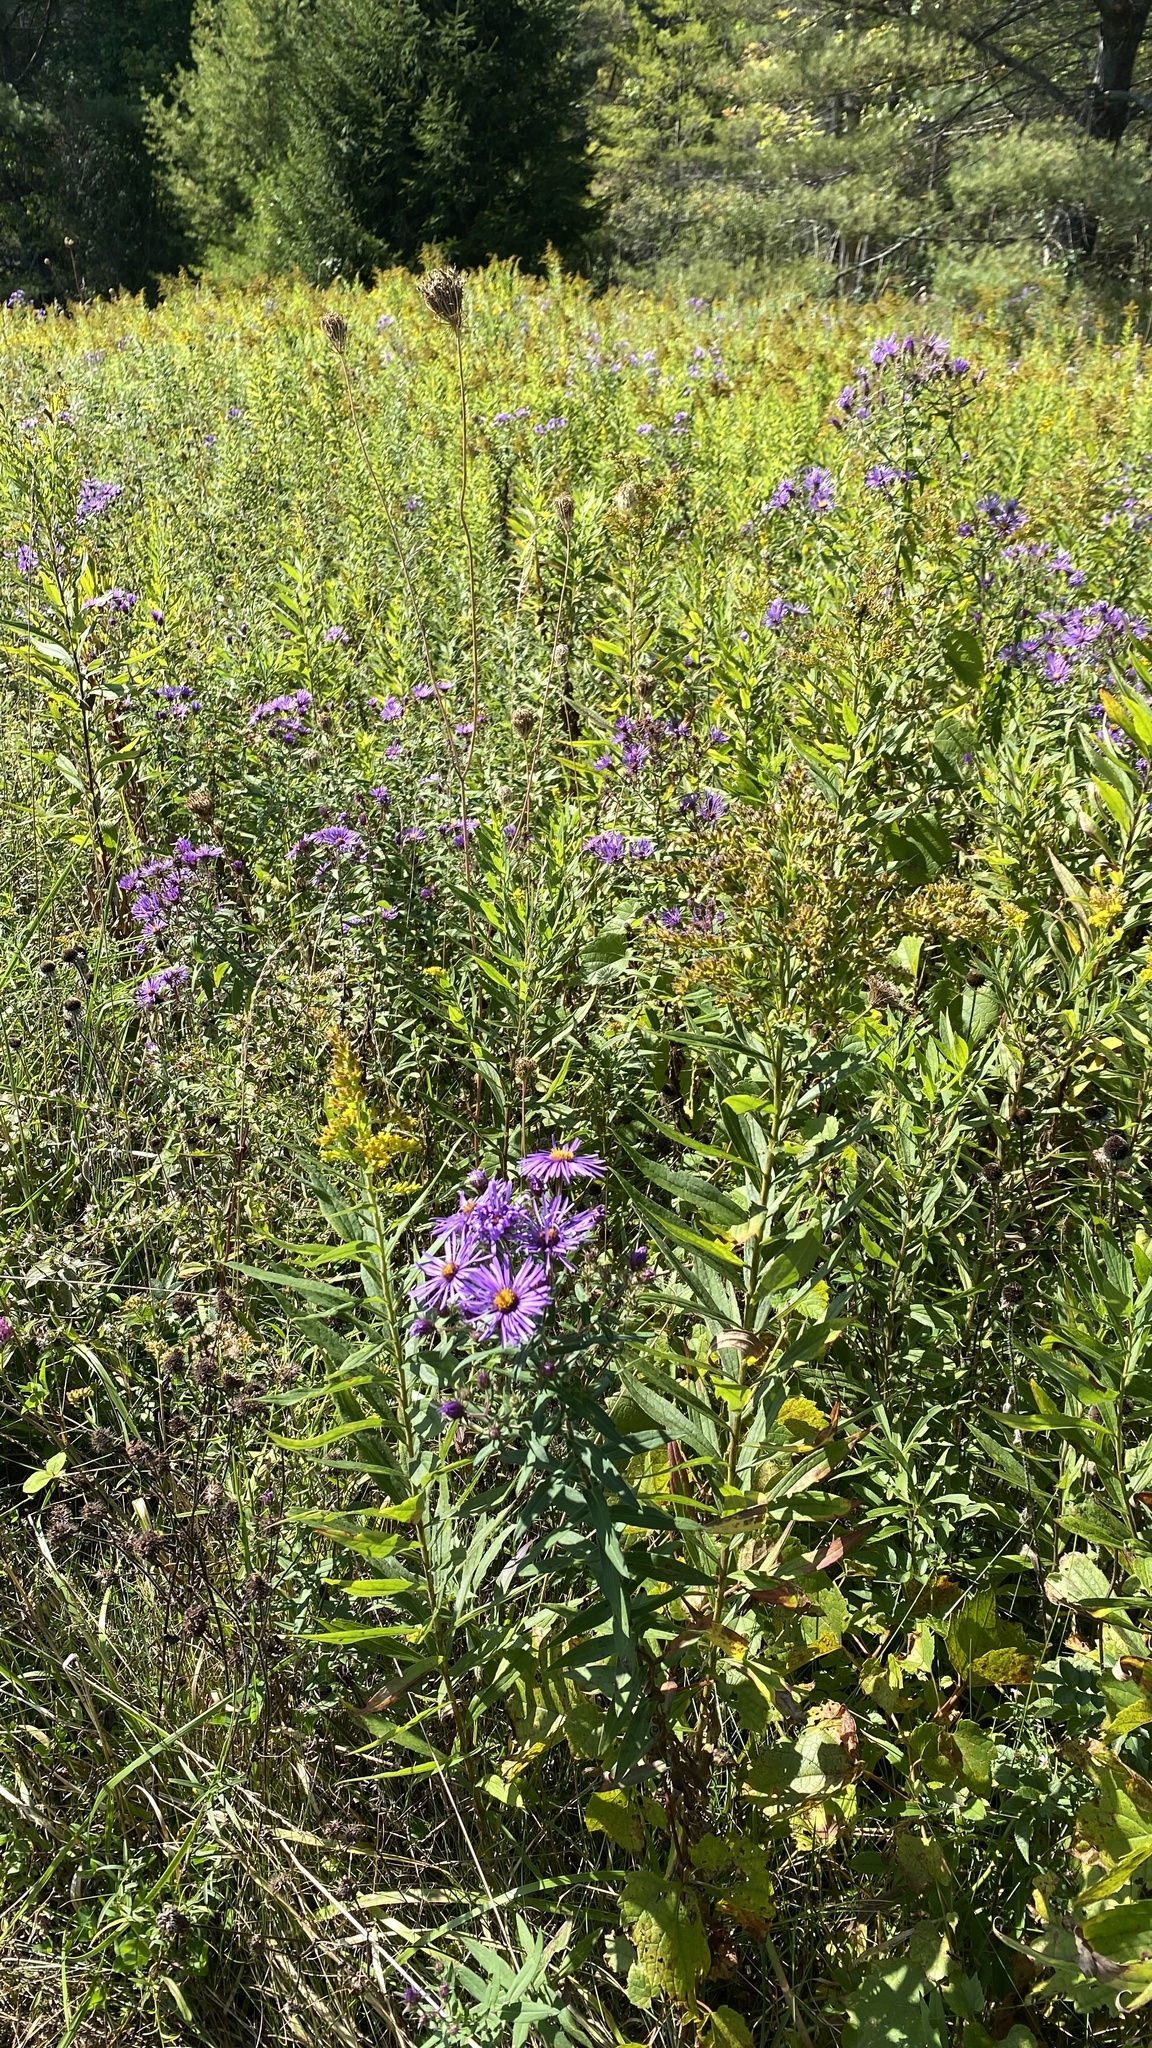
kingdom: Plantae
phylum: Tracheophyta
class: Magnoliopsida
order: Asterales
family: Asteraceae
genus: Symphyotrichum
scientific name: Symphyotrichum novae-angliae
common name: Michaelmas daisy
